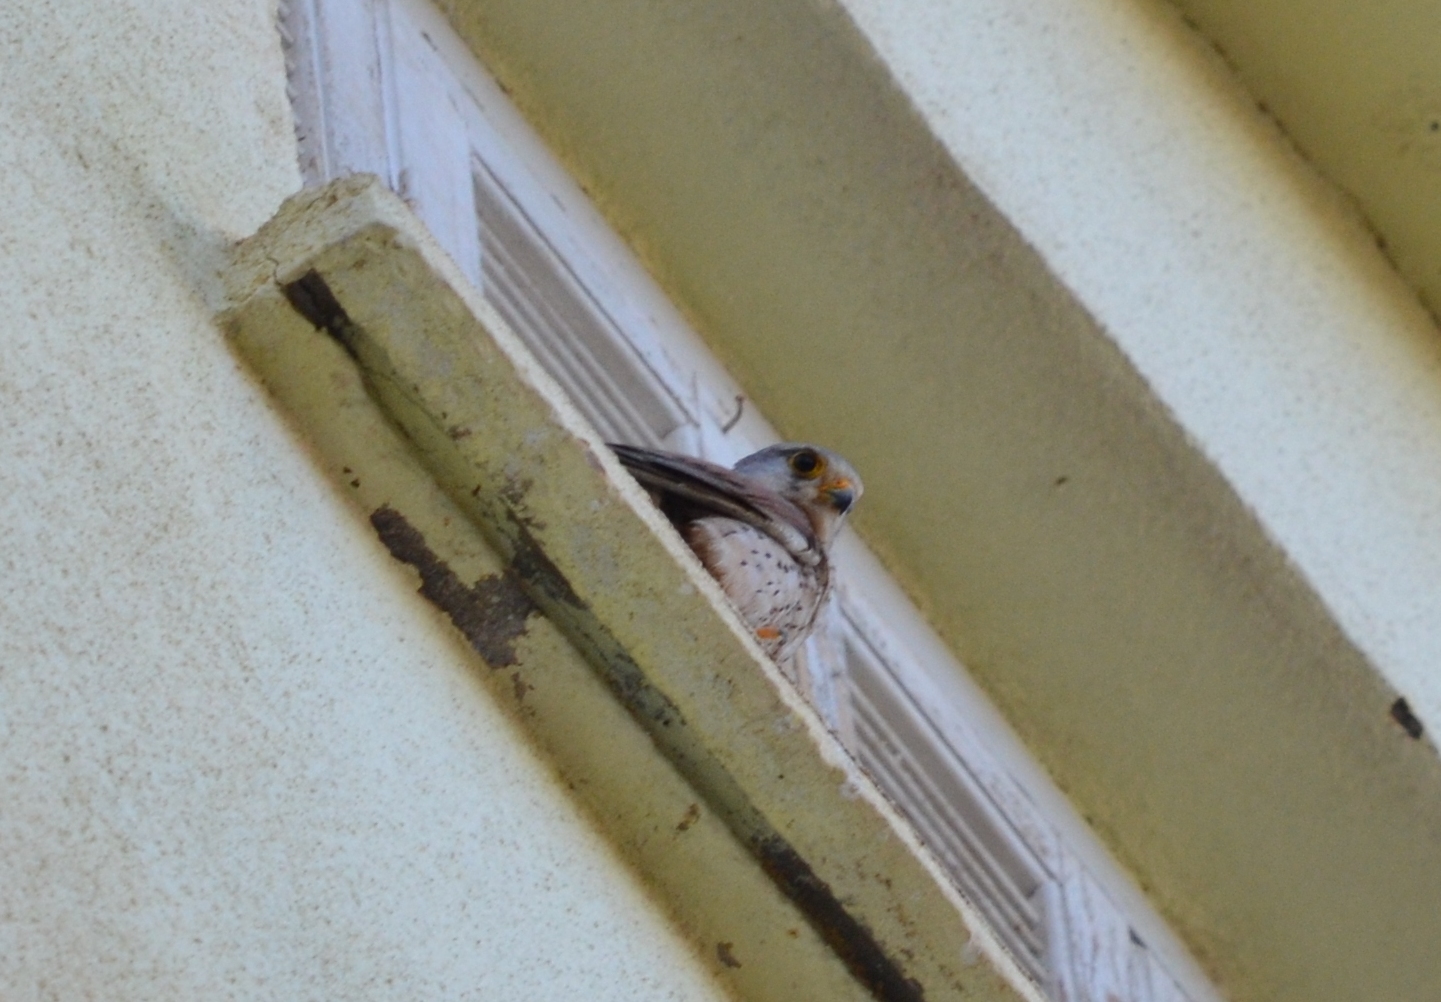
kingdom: Animalia
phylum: Chordata
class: Aves
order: Falconiformes
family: Falconidae
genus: Falco
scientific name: Falco tinnunculus
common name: Common kestrel
